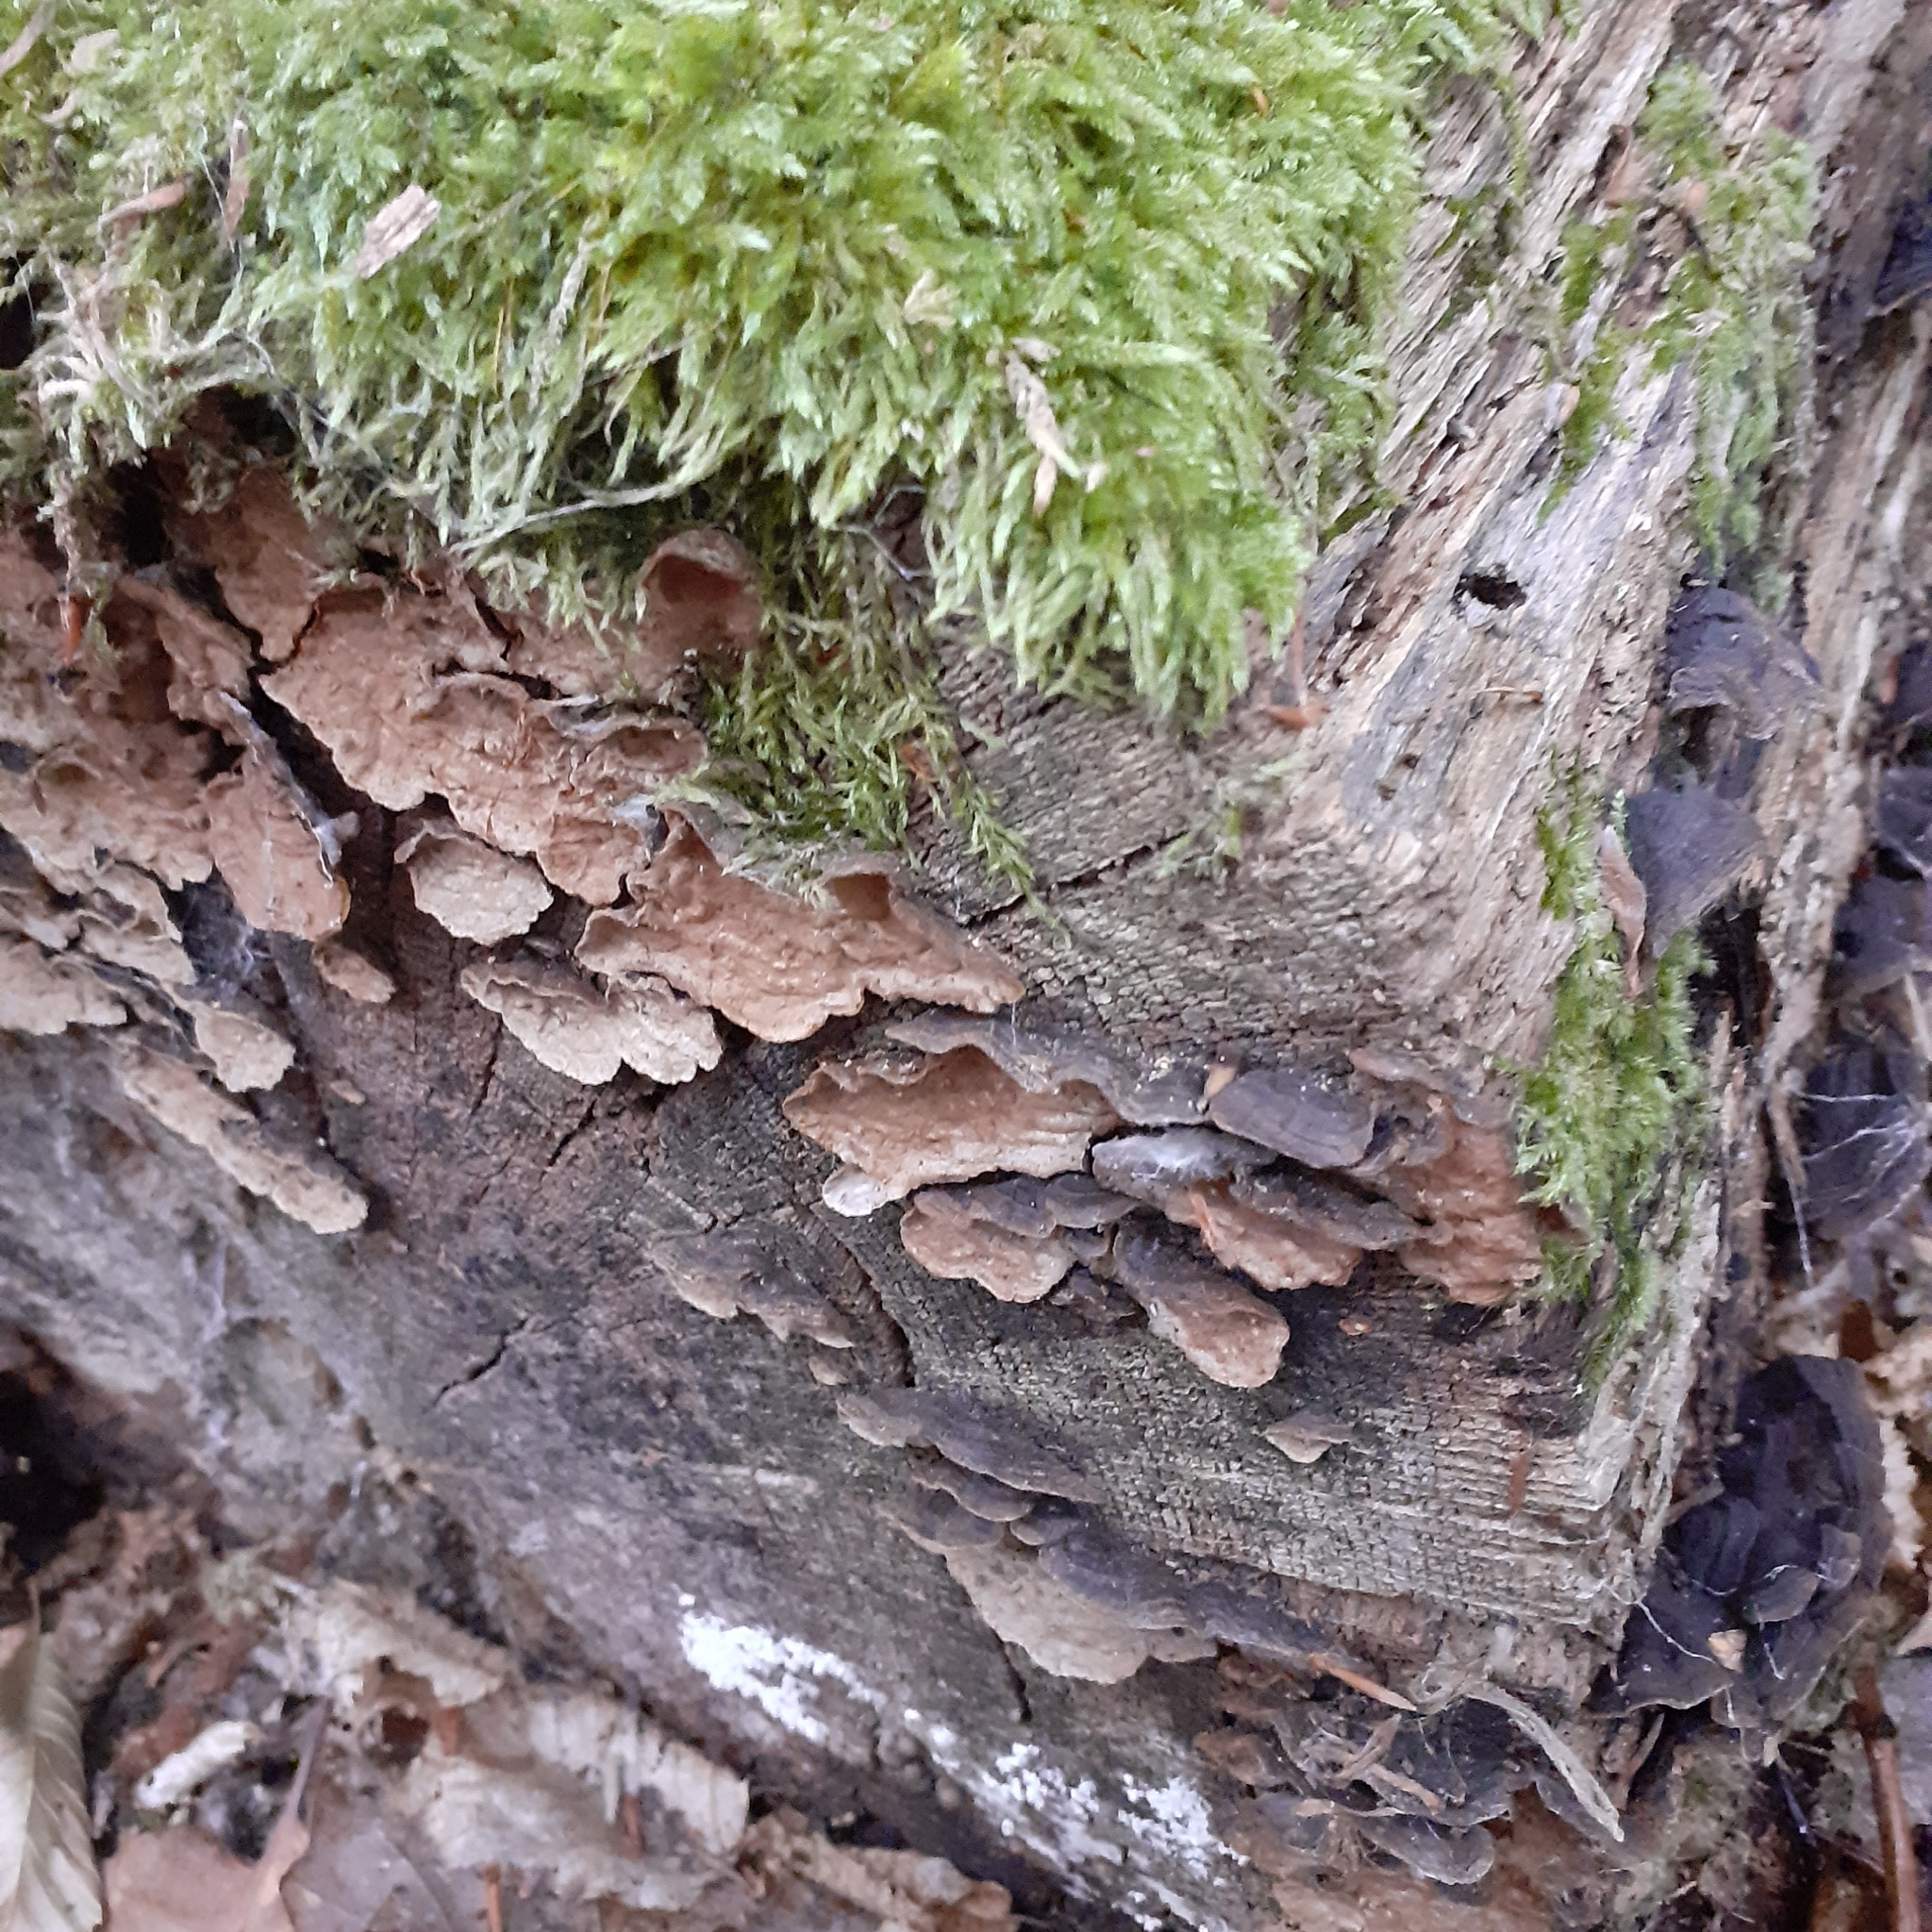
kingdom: Fungi
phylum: Basidiomycota
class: Agaricomycetes
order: Hymenochaetales
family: Hymenochaetaceae
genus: Hymenochaete
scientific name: Hymenochaete rubiginosa
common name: Oak curtain crust
